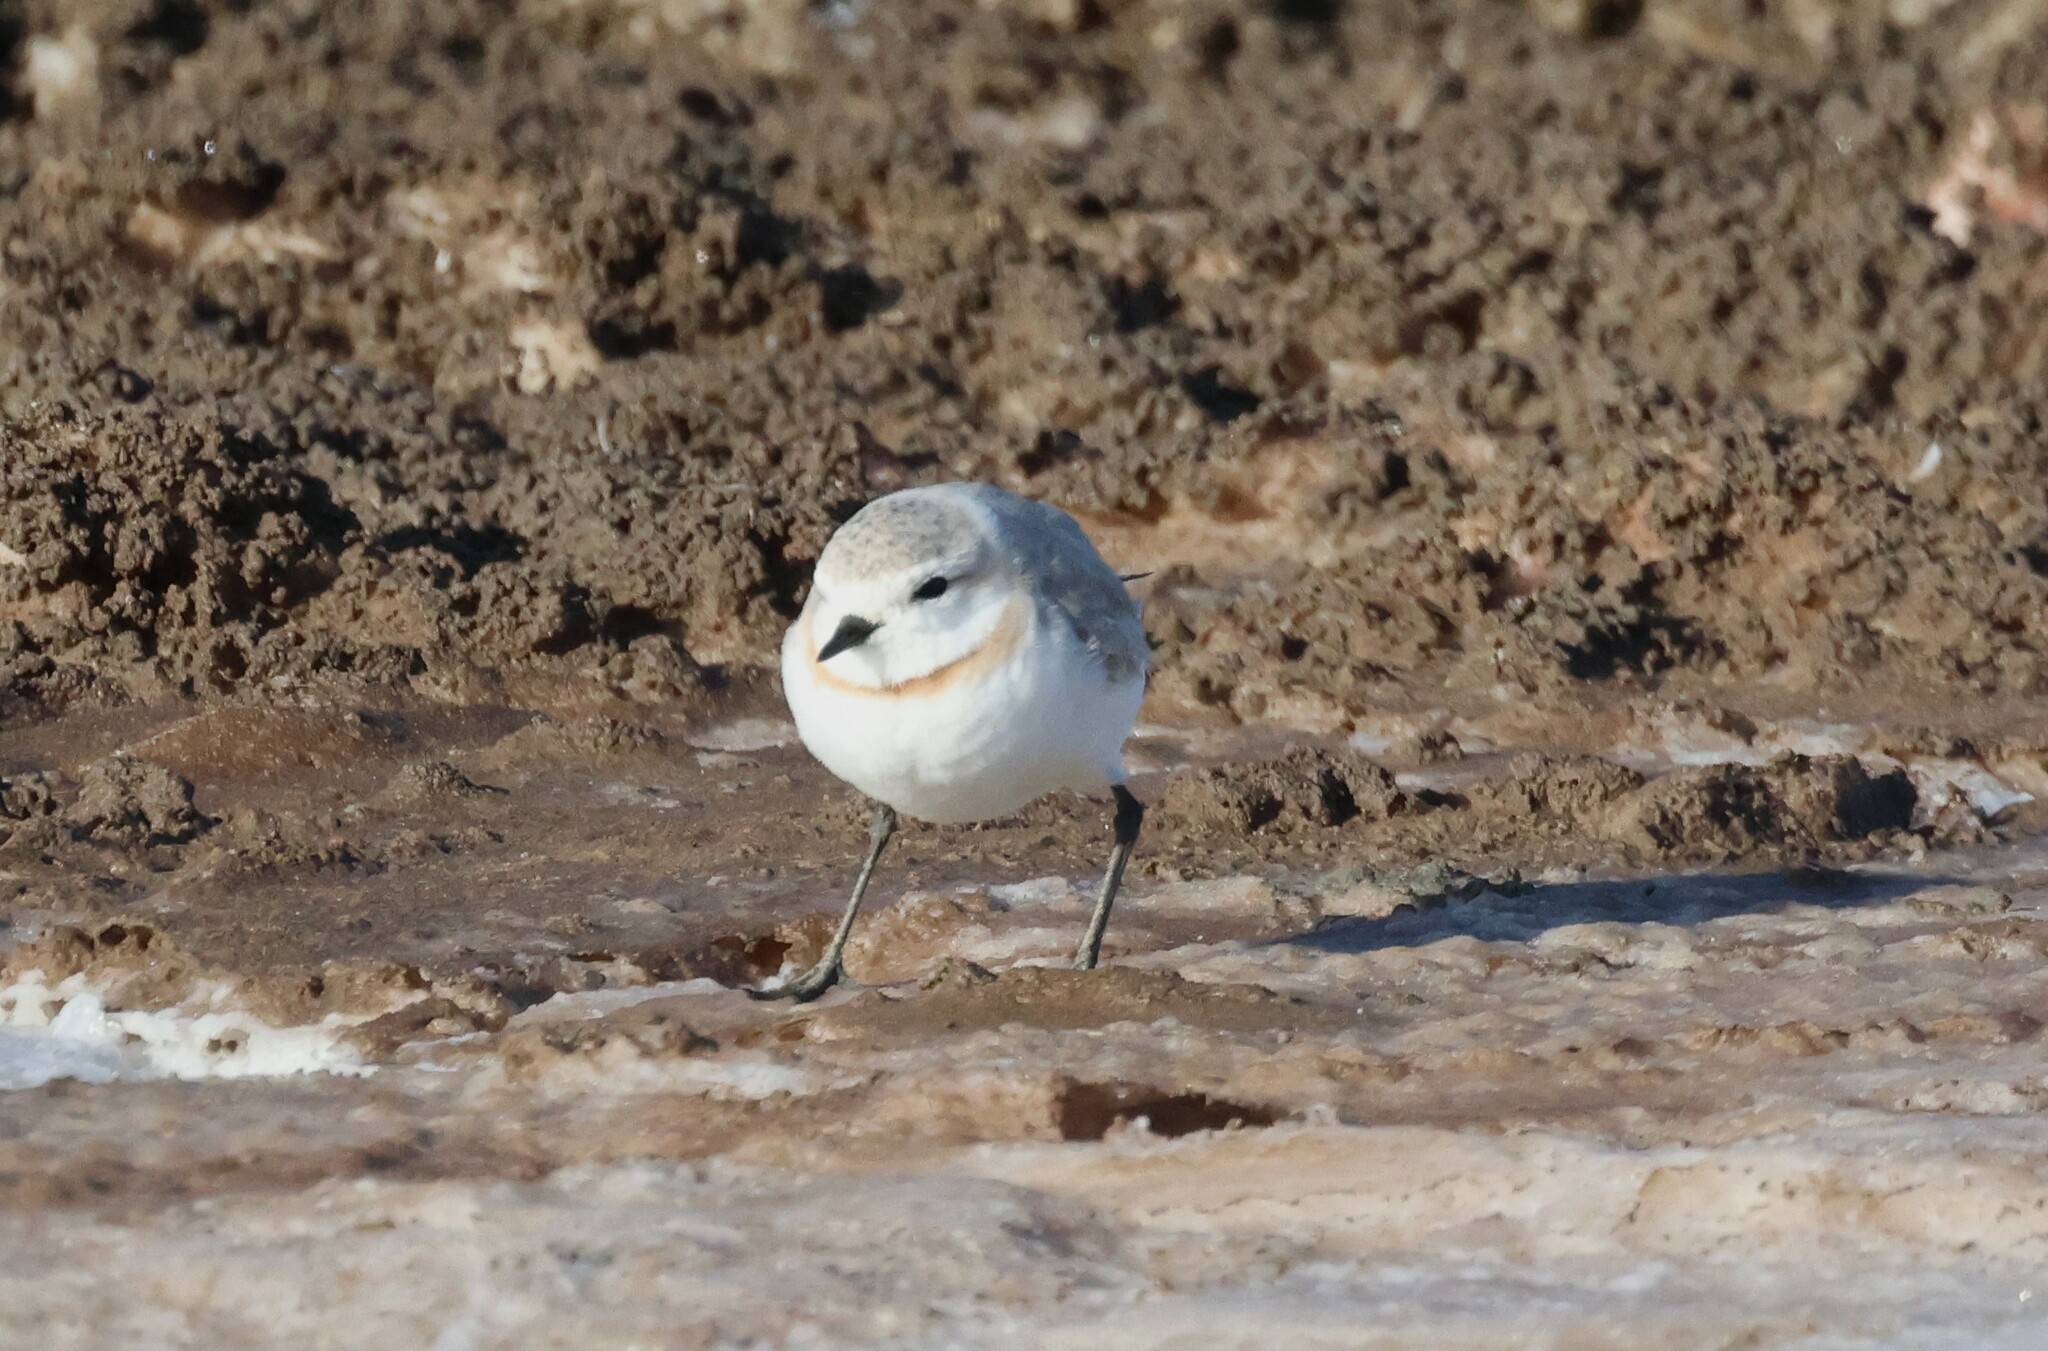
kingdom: Animalia
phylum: Chordata
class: Aves
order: Charadriiformes
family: Charadriidae
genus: Anarhynchus
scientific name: Anarhynchus
